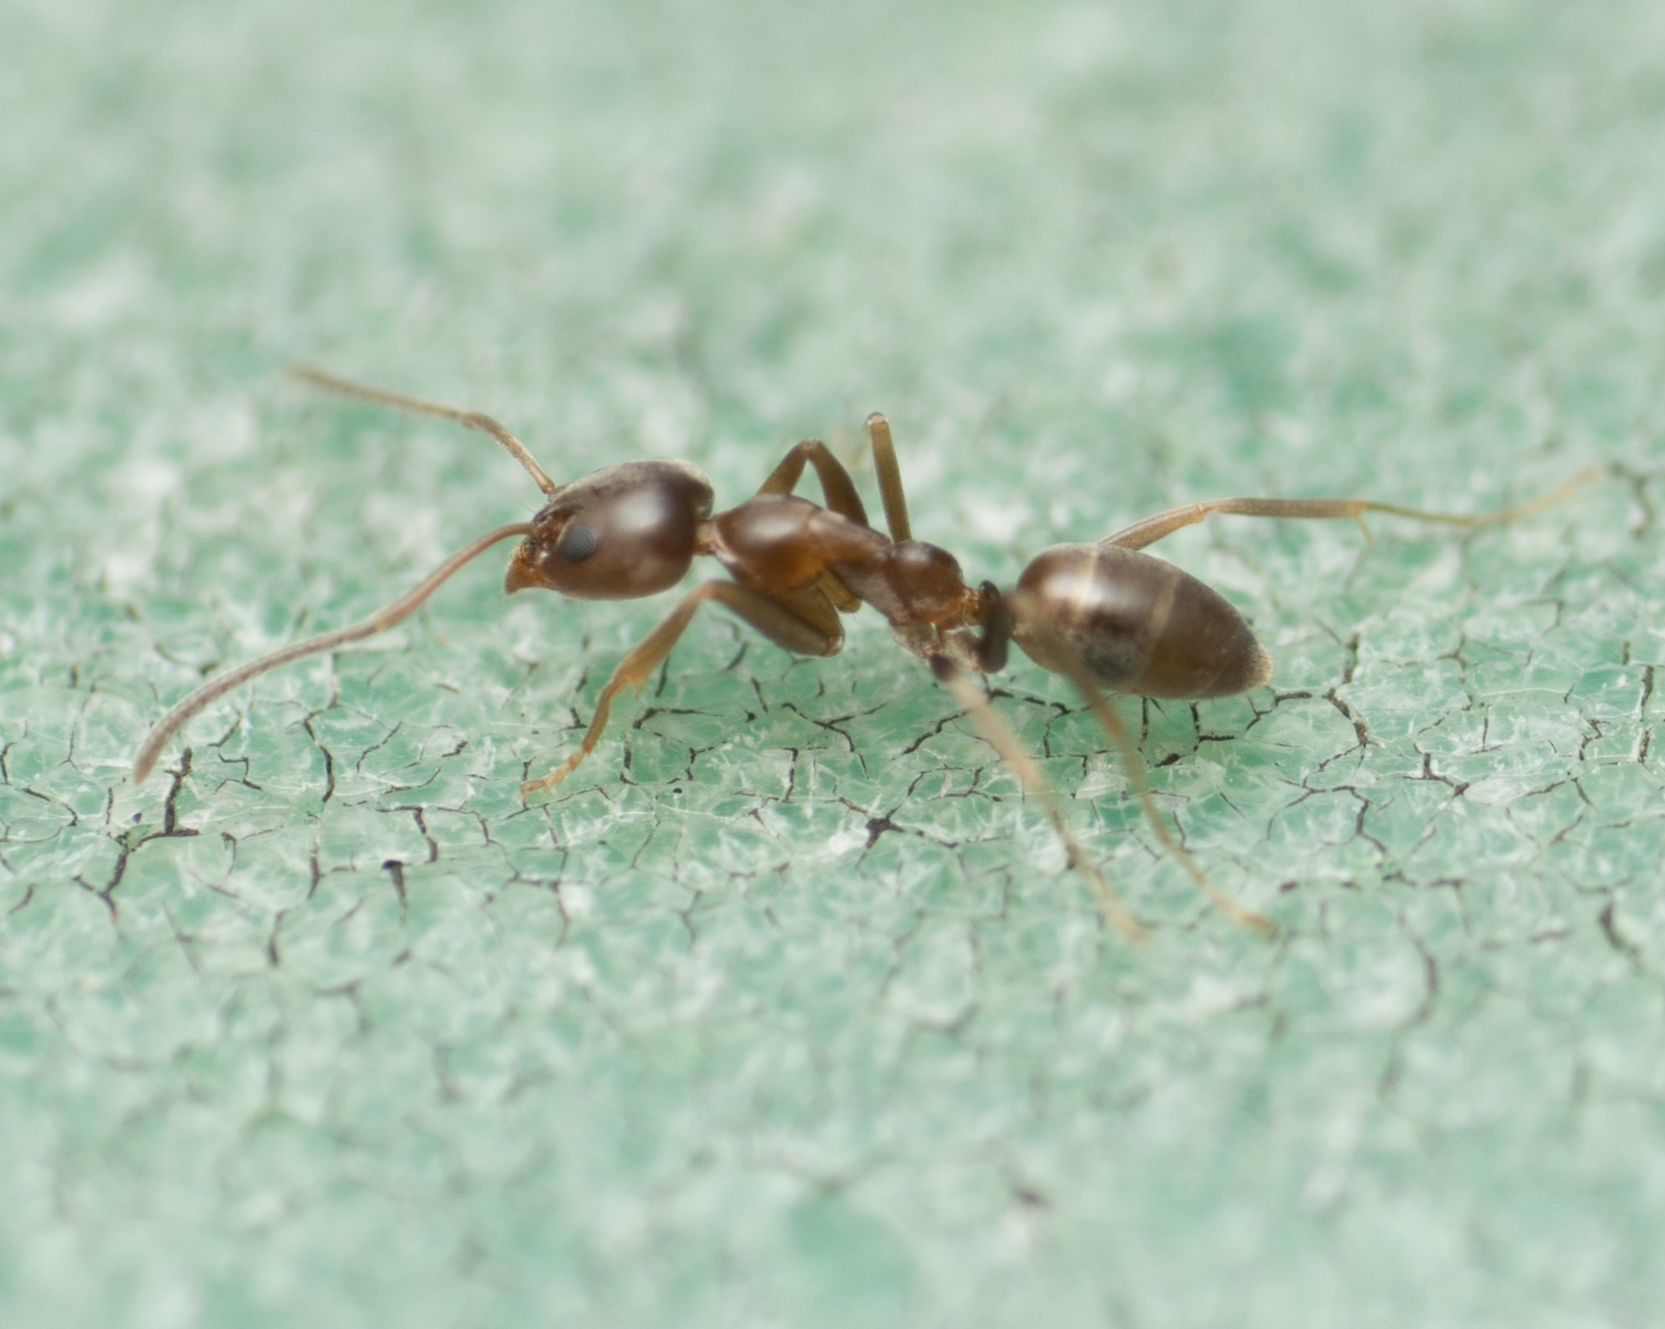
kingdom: Animalia
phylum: Arthropoda
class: Insecta
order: Hymenoptera
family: Formicidae
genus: Linepithema
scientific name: Linepithema humile
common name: Argentine ant
